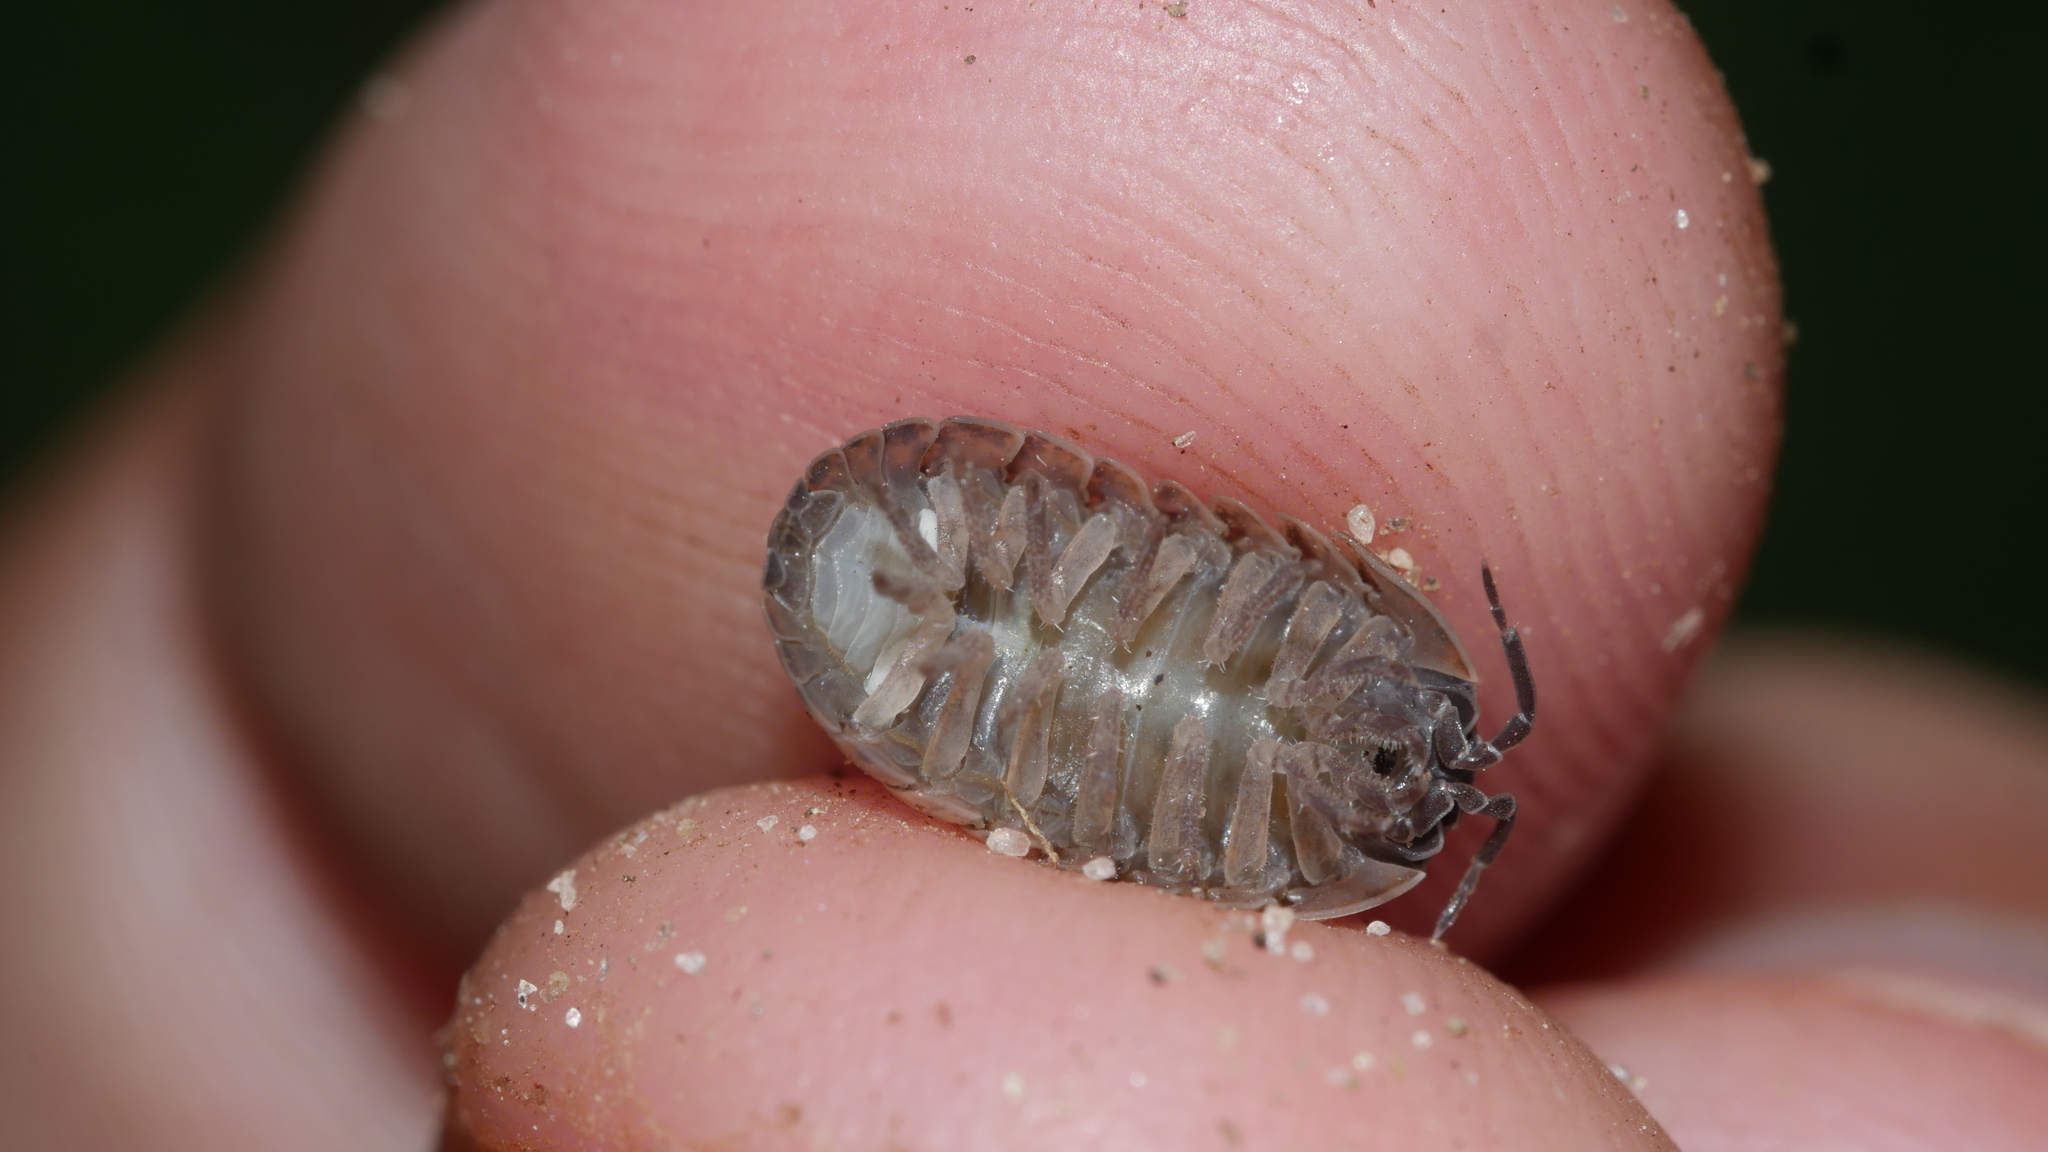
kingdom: Animalia
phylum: Arthropoda
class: Malacostraca
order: Isopoda
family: Armadillidiidae
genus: Armadillidium
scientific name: Armadillidium vulgare
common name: Common pill woodlouse
